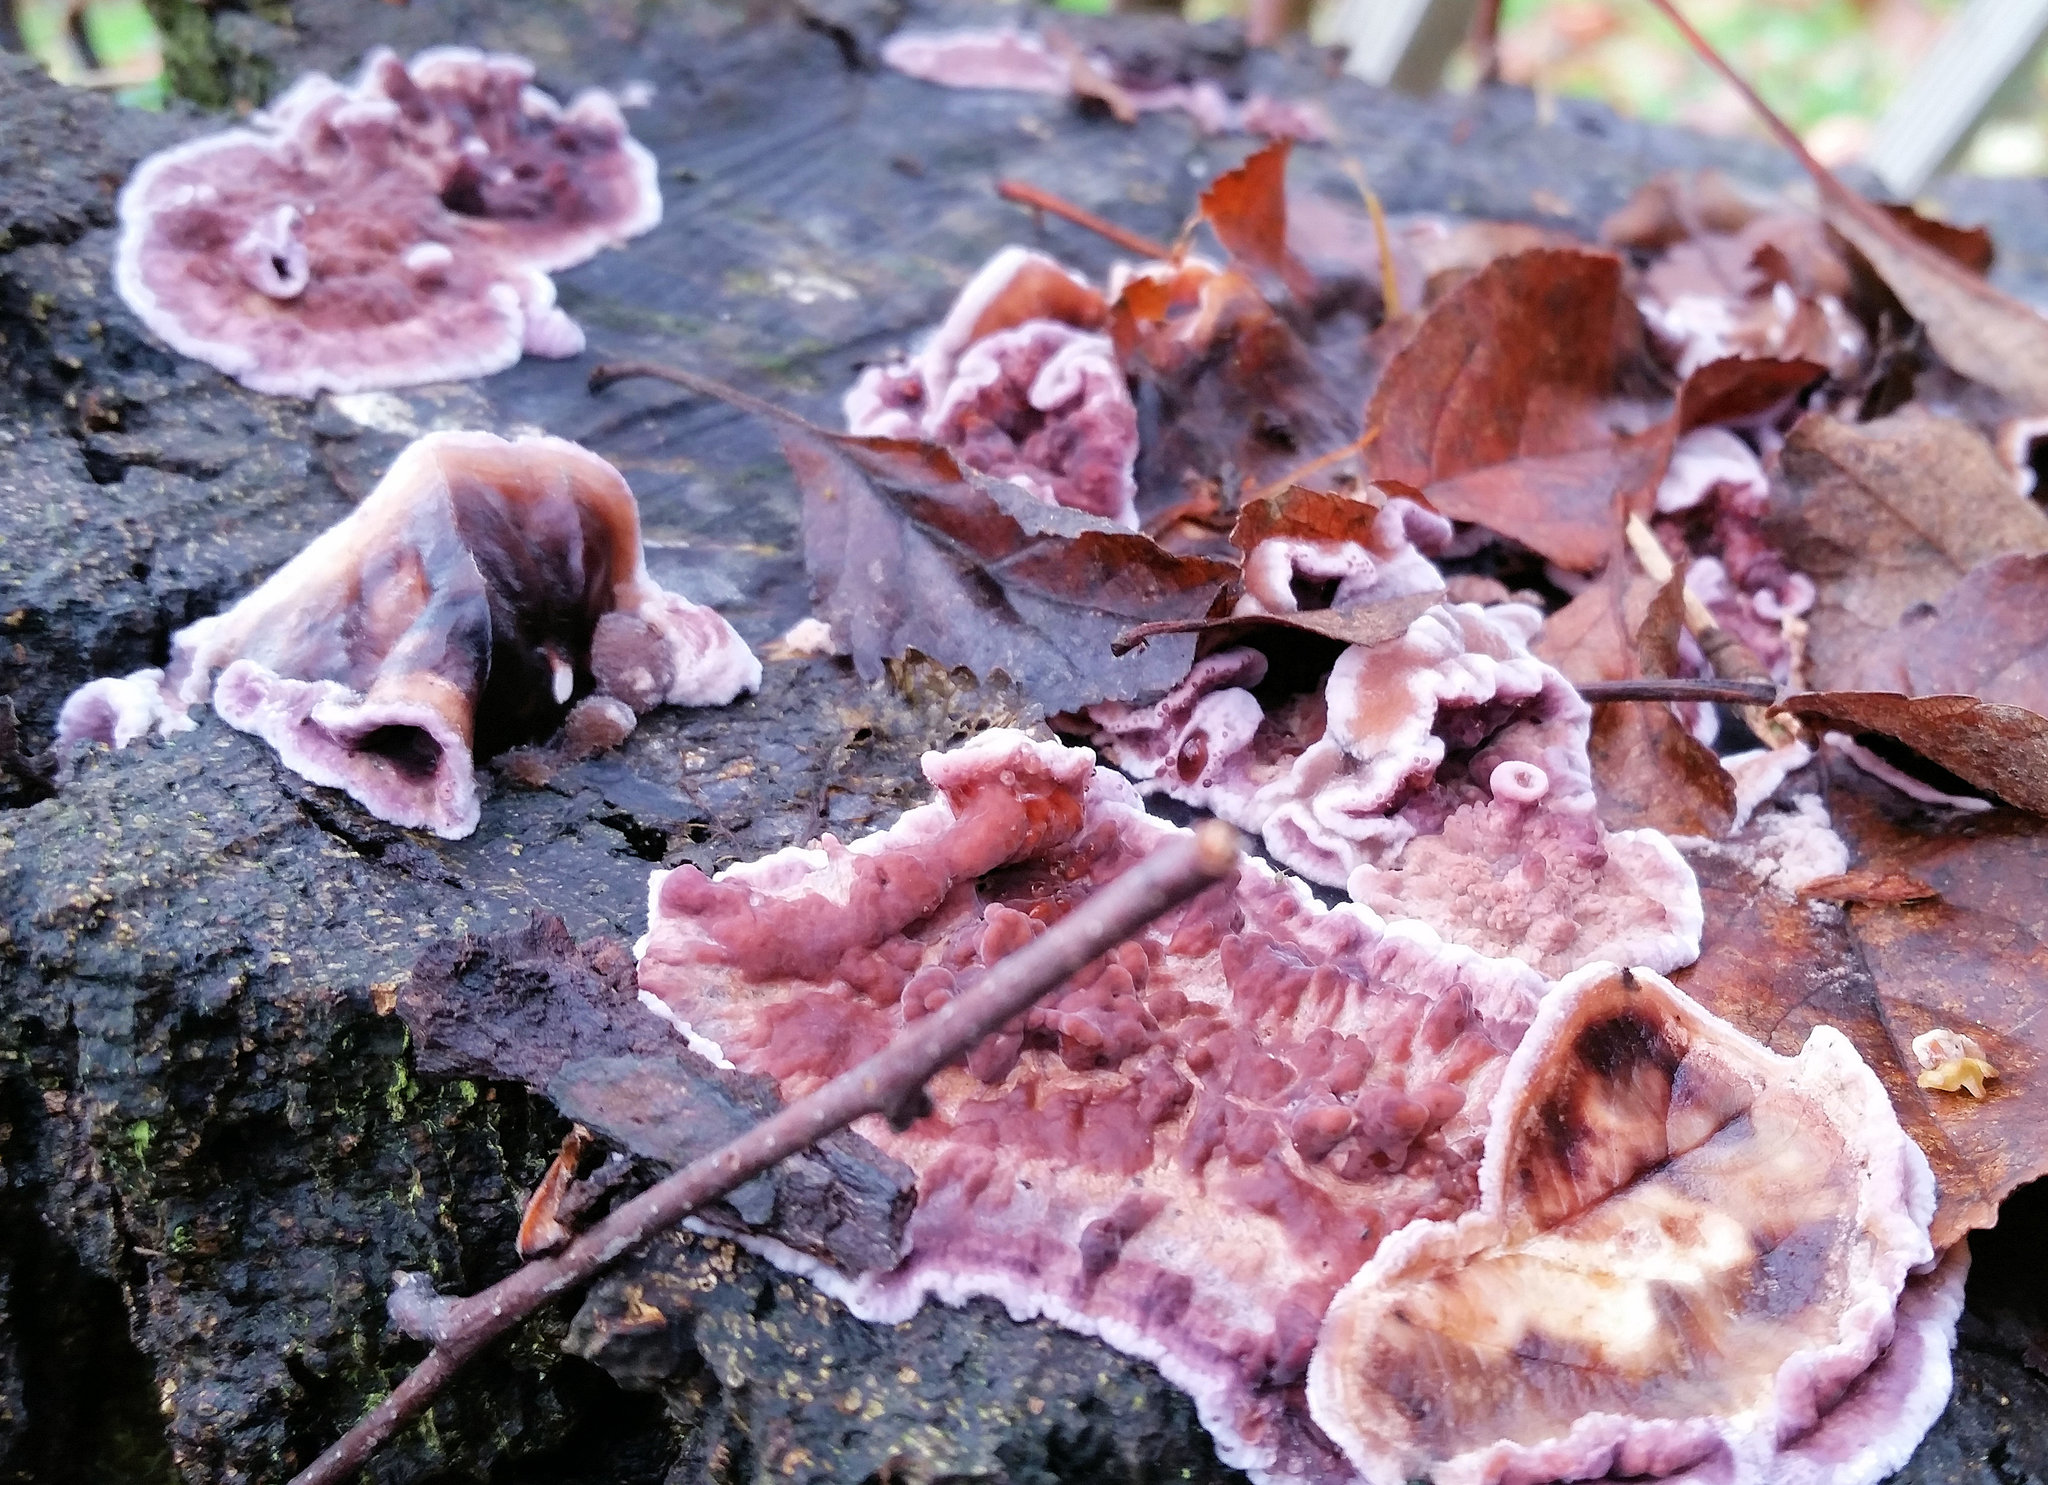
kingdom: Fungi
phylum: Basidiomycota
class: Agaricomycetes
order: Agaricales
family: Cyphellaceae
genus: Chondrostereum
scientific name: Chondrostereum purpureum
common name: Silver leaf disease
